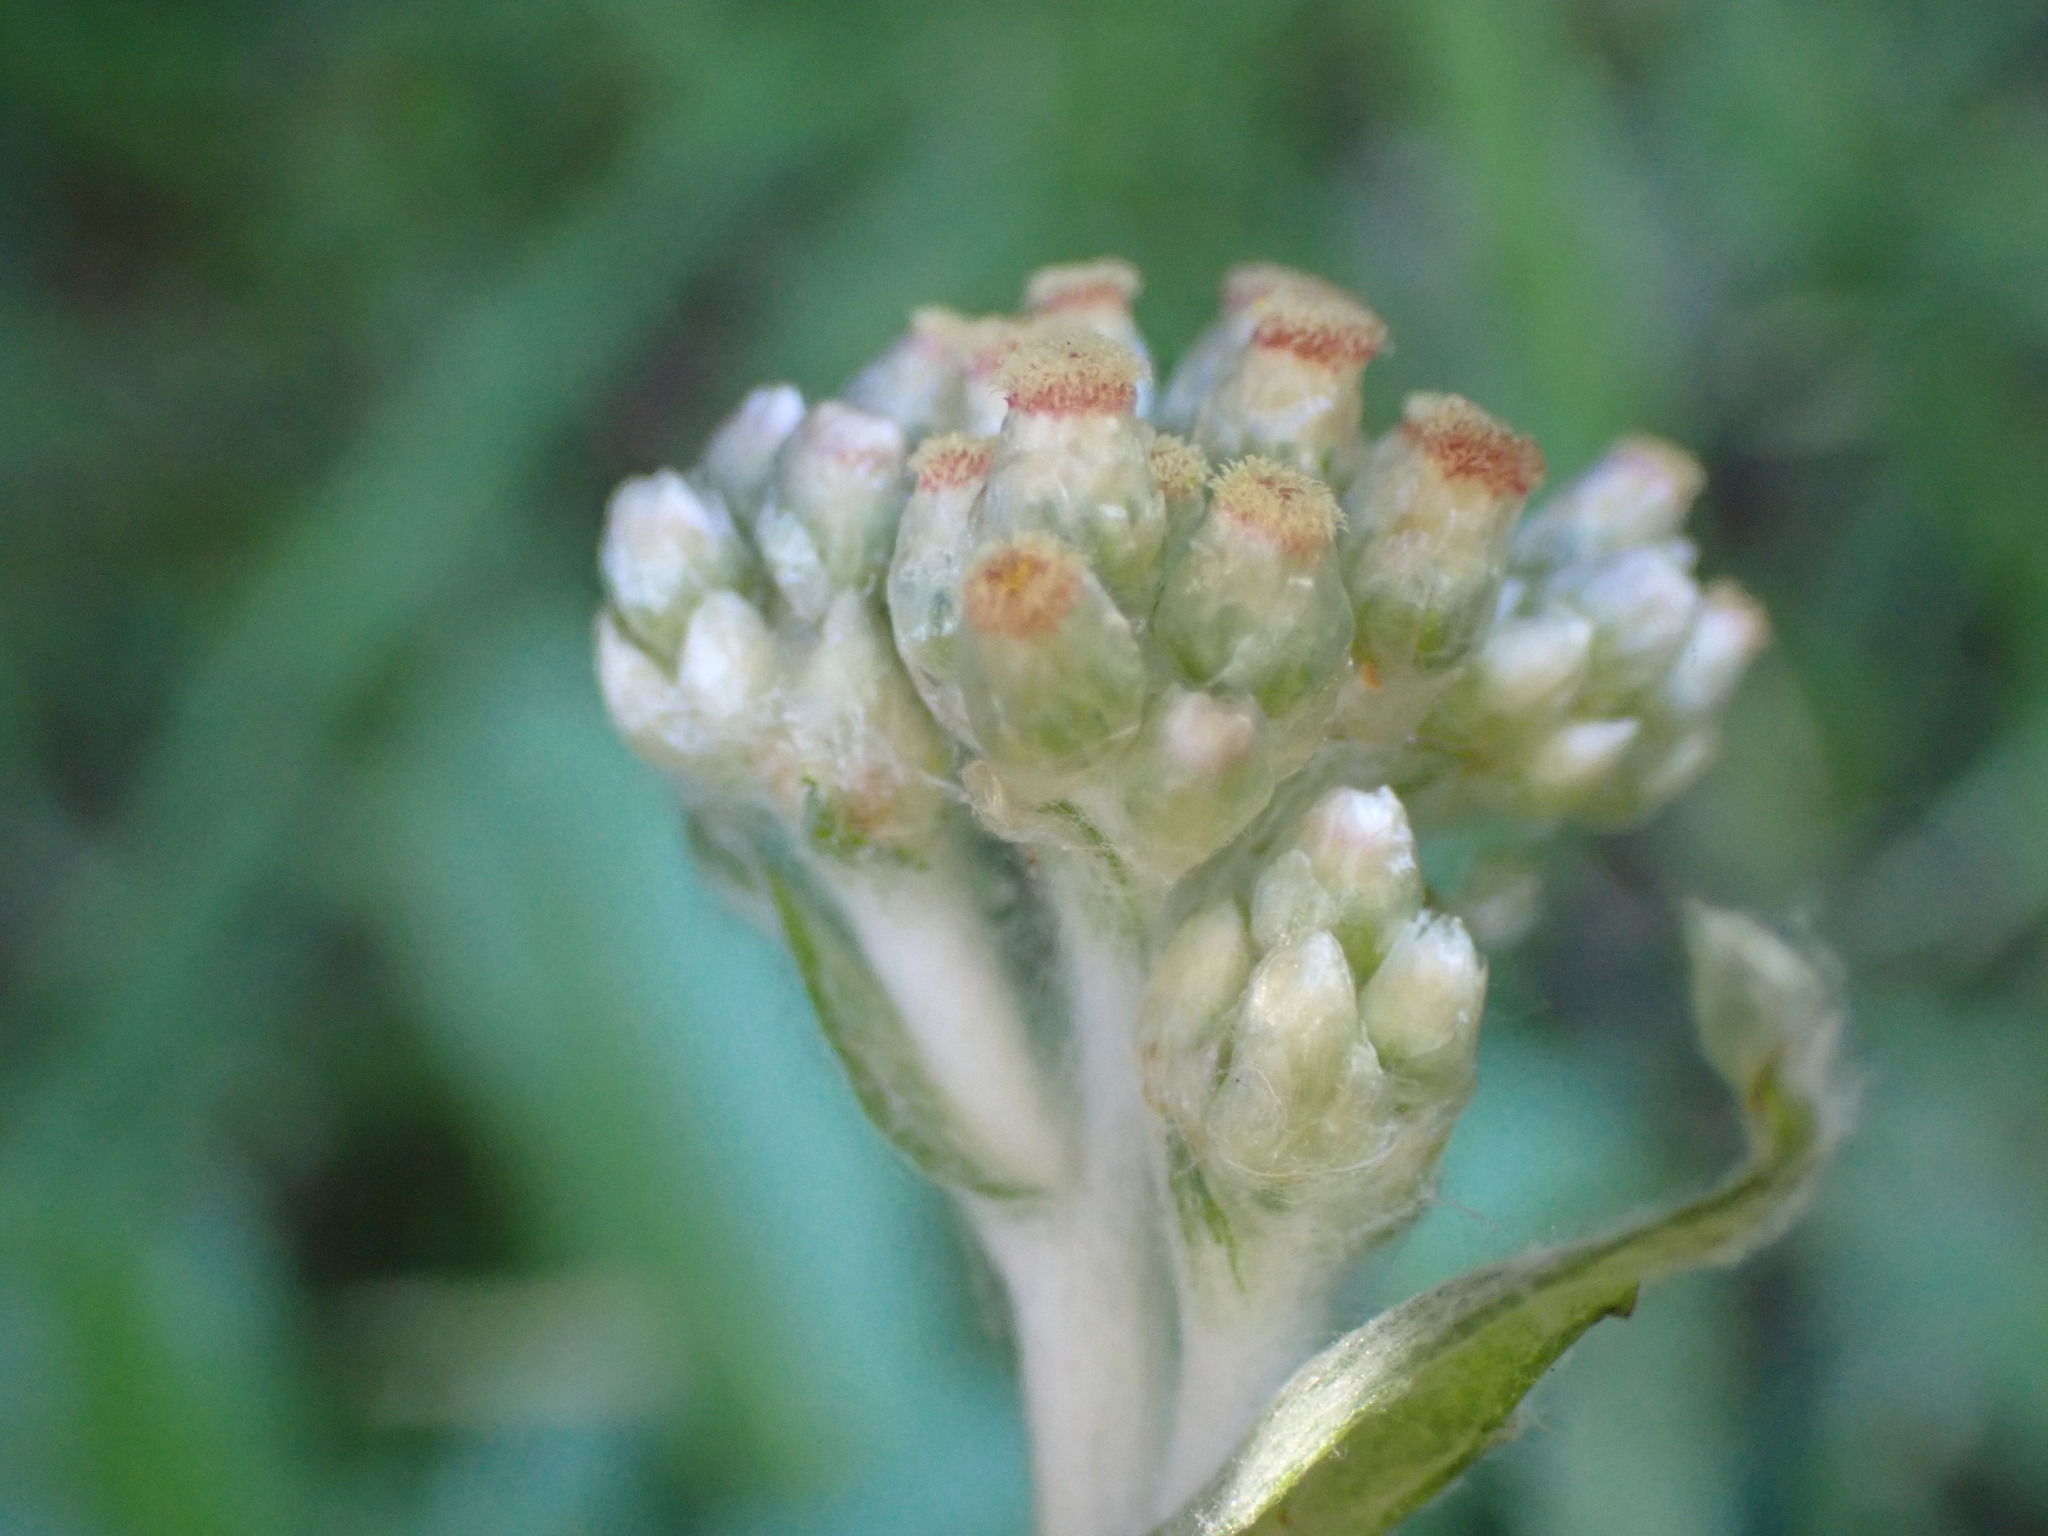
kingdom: Plantae
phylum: Tracheophyta
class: Magnoliopsida
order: Asterales
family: Asteraceae
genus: Helichrysum
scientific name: Helichrysum luteoalbum
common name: Daisy
